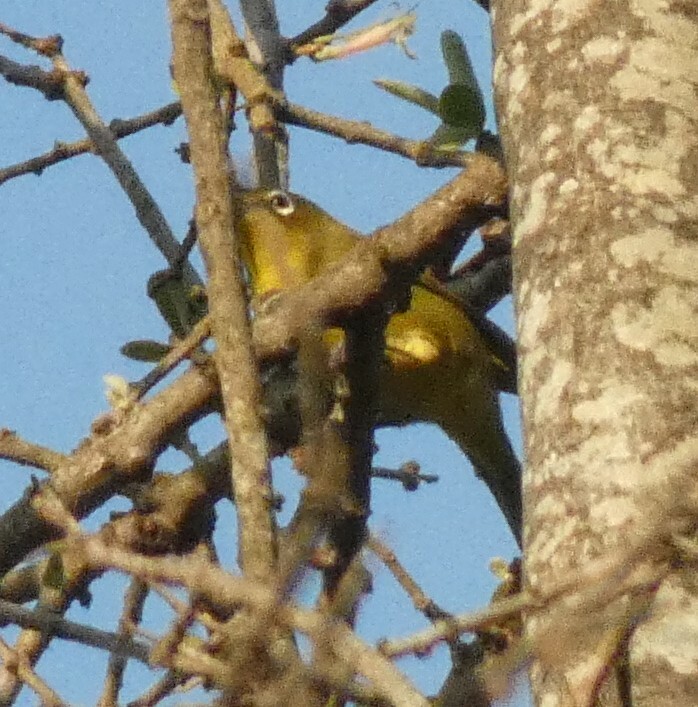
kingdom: Animalia
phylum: Chordata
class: Aves
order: Passeriformes
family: Zosteropidae
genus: Zosterops
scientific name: Zosterops virens
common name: Cape white-eye
